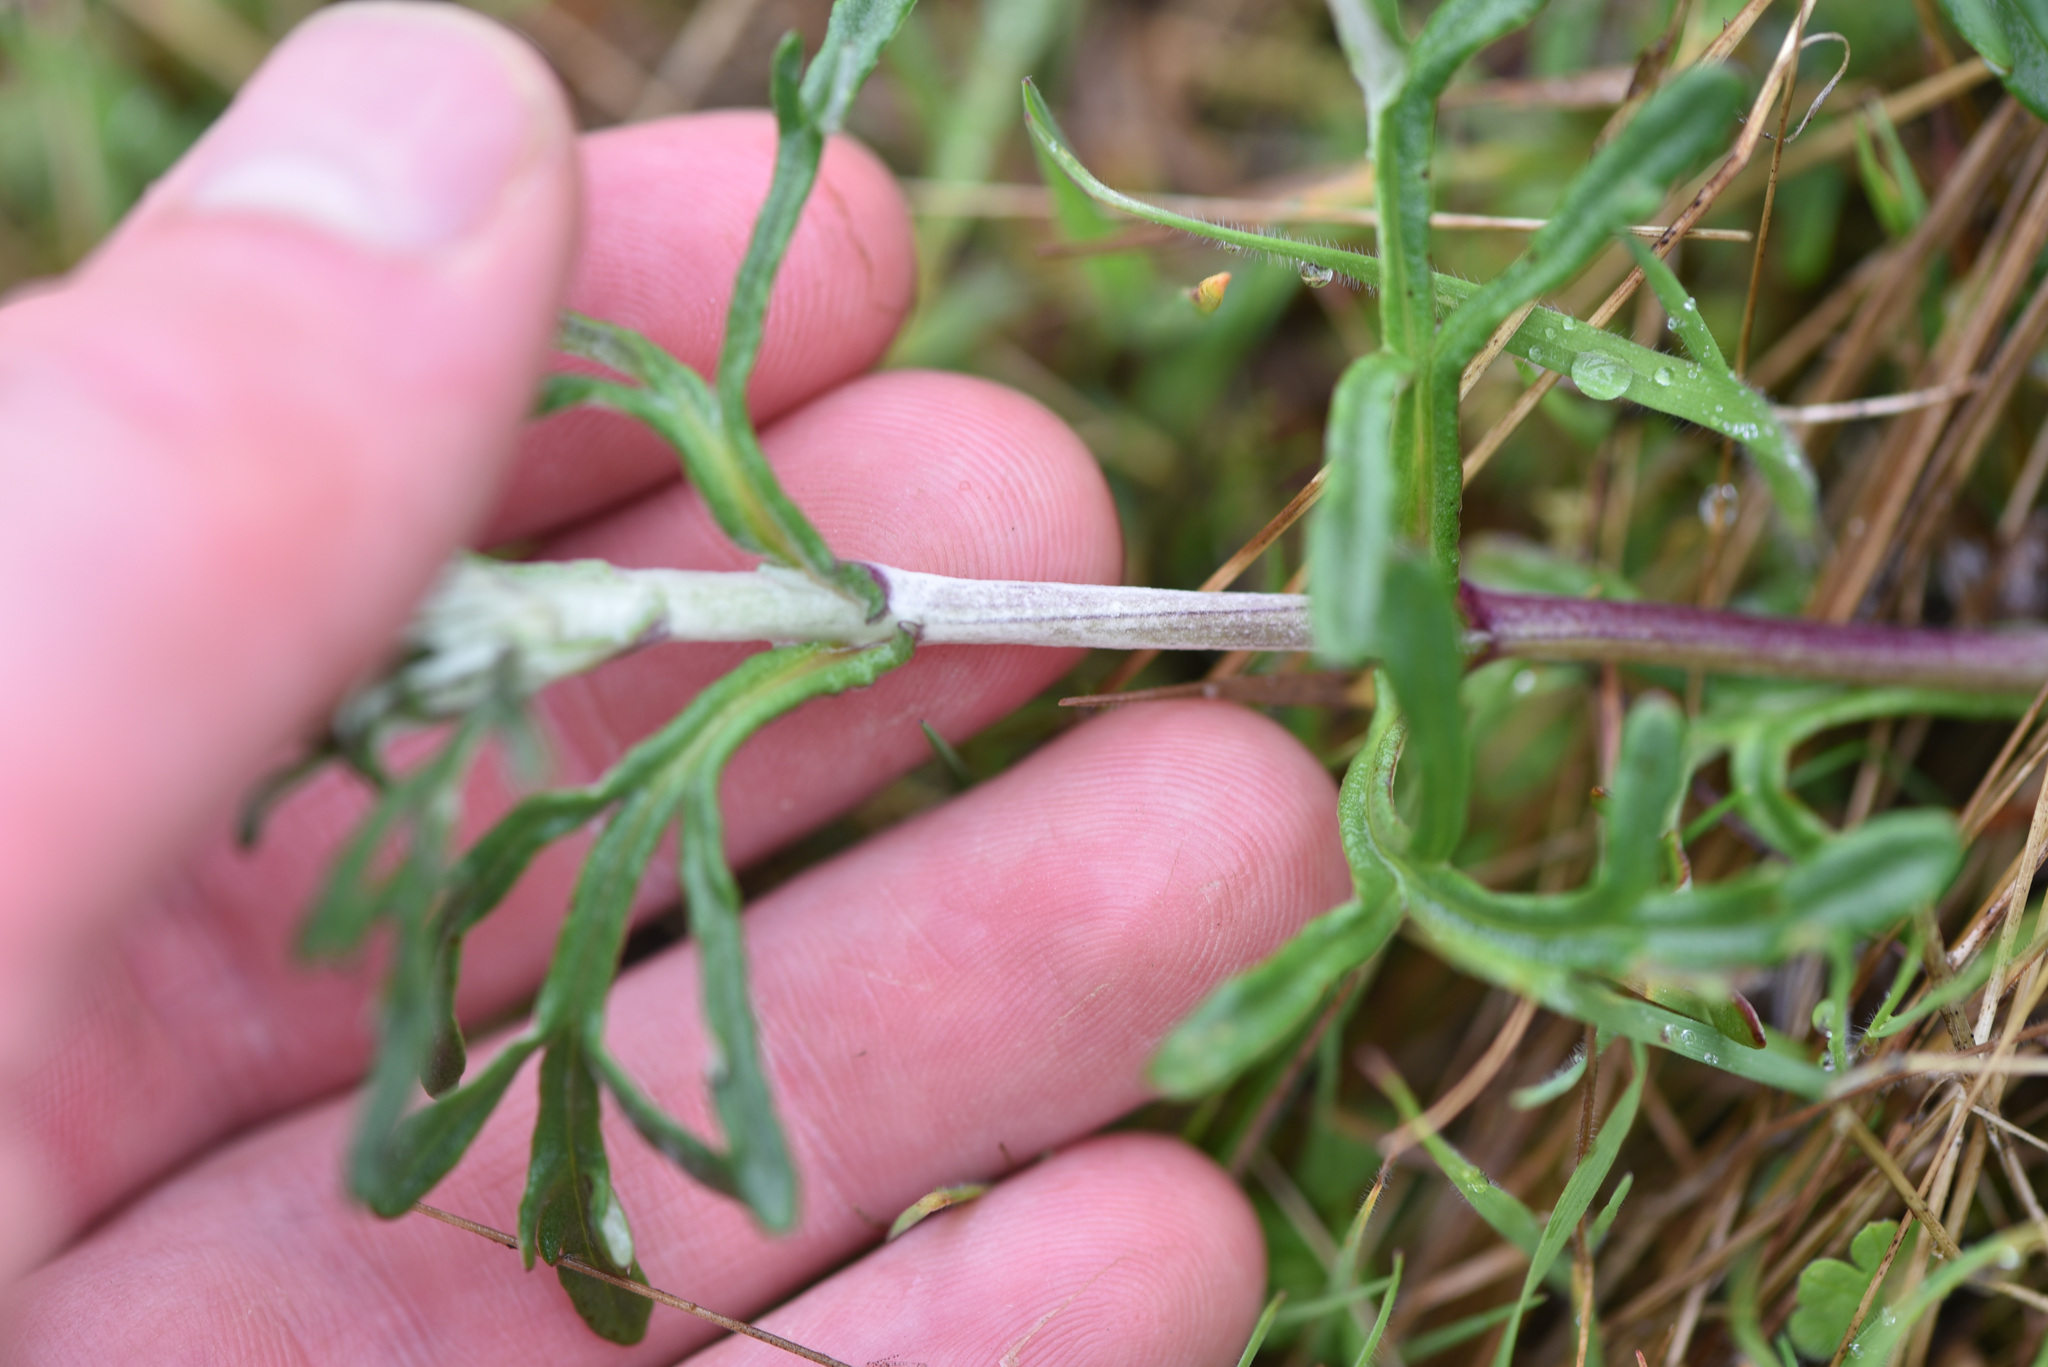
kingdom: Plantae
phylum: Tracheophyta
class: Magnoliopsida
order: Asterales
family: Asteraceae
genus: Eriophyllum
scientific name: Eriophyllum lanatum
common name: Common woolly-sunflower
